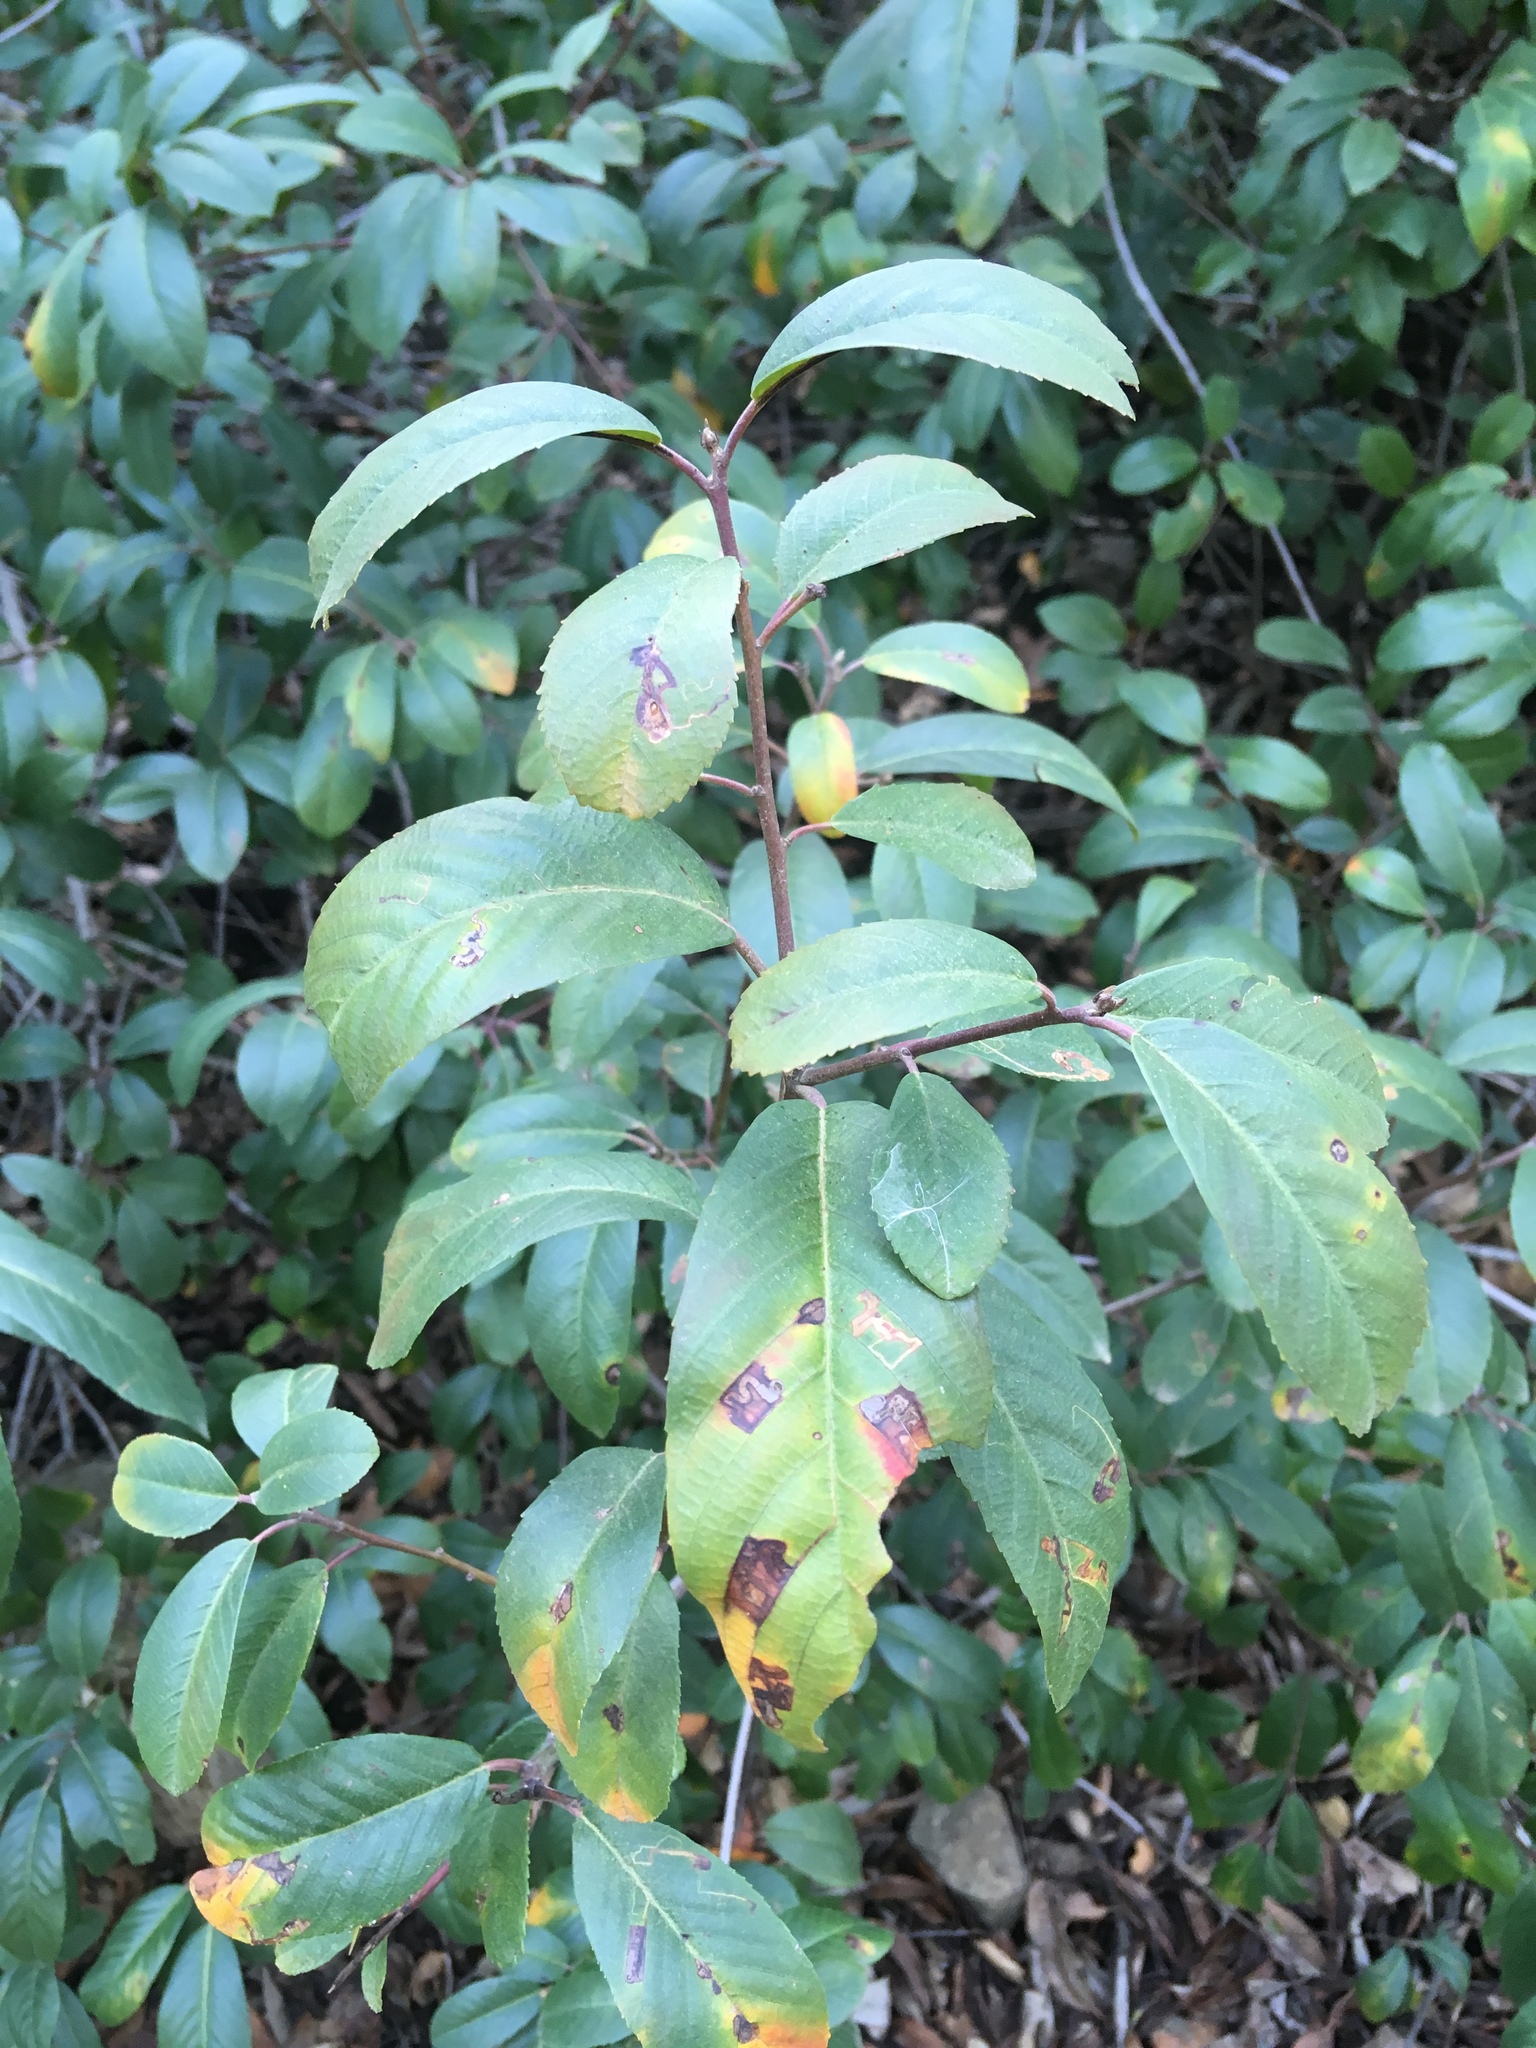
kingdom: Plantae
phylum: Tracheophyta
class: Magnoliopsida
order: Rosales
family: Rhamnaceae
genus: Frangula
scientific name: Frangula californica
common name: California buckthorn
